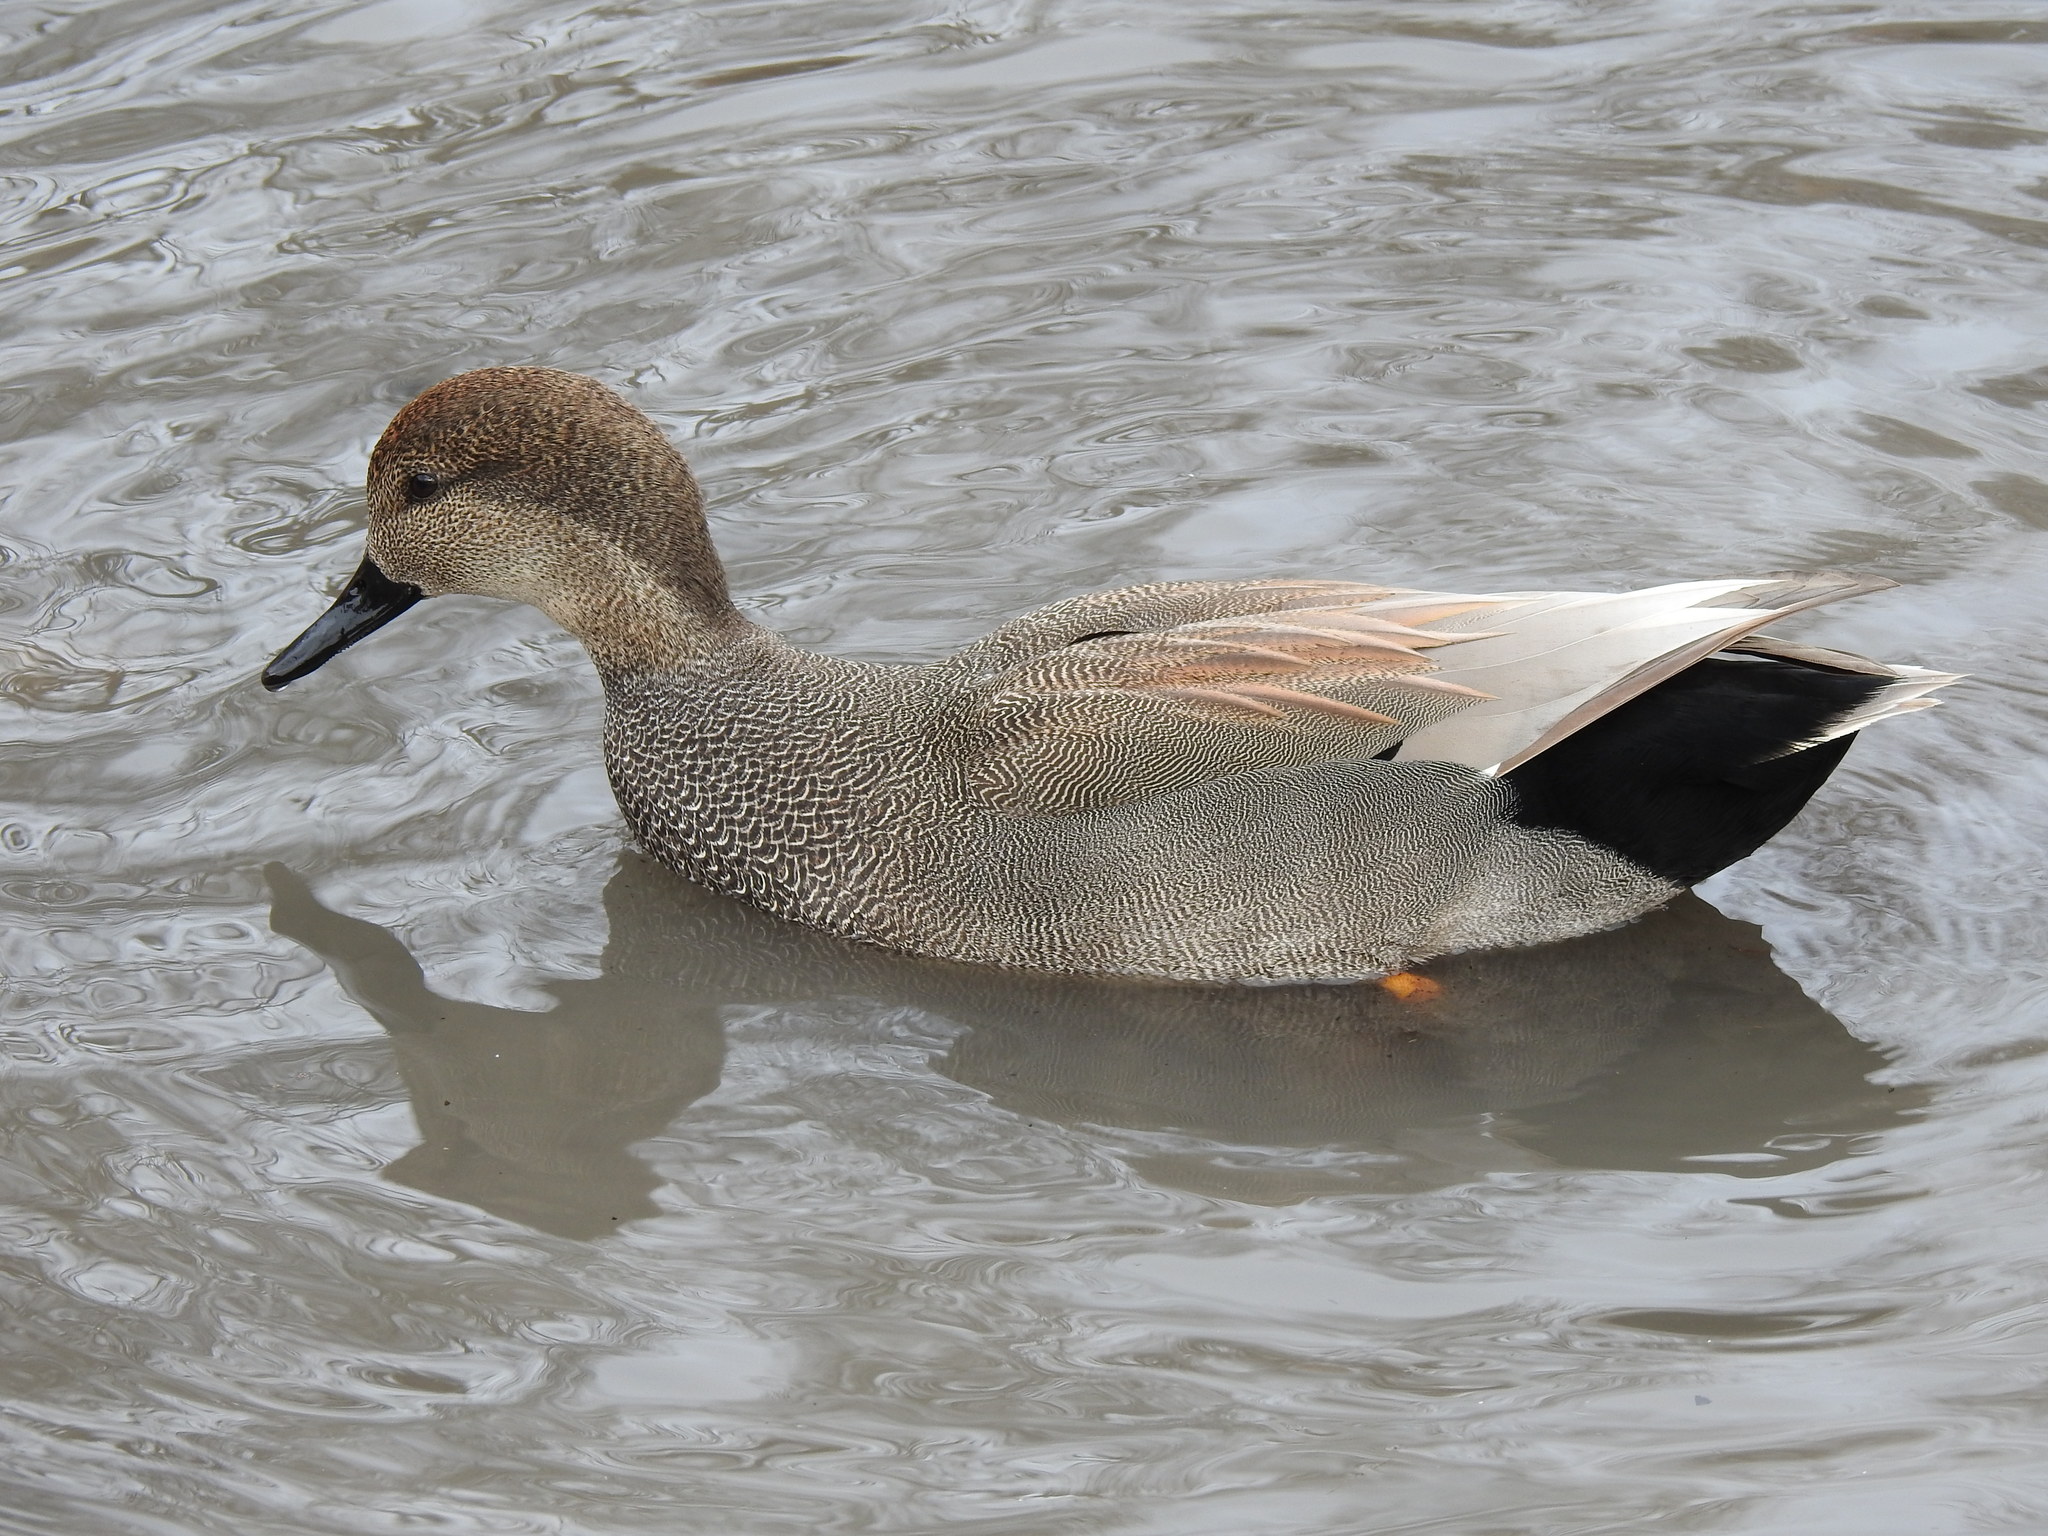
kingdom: Animalia
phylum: Chordata
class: Aves
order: Anseriformes
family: Anatidae
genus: Mareca
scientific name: Mareca strepera
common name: Gadwall
